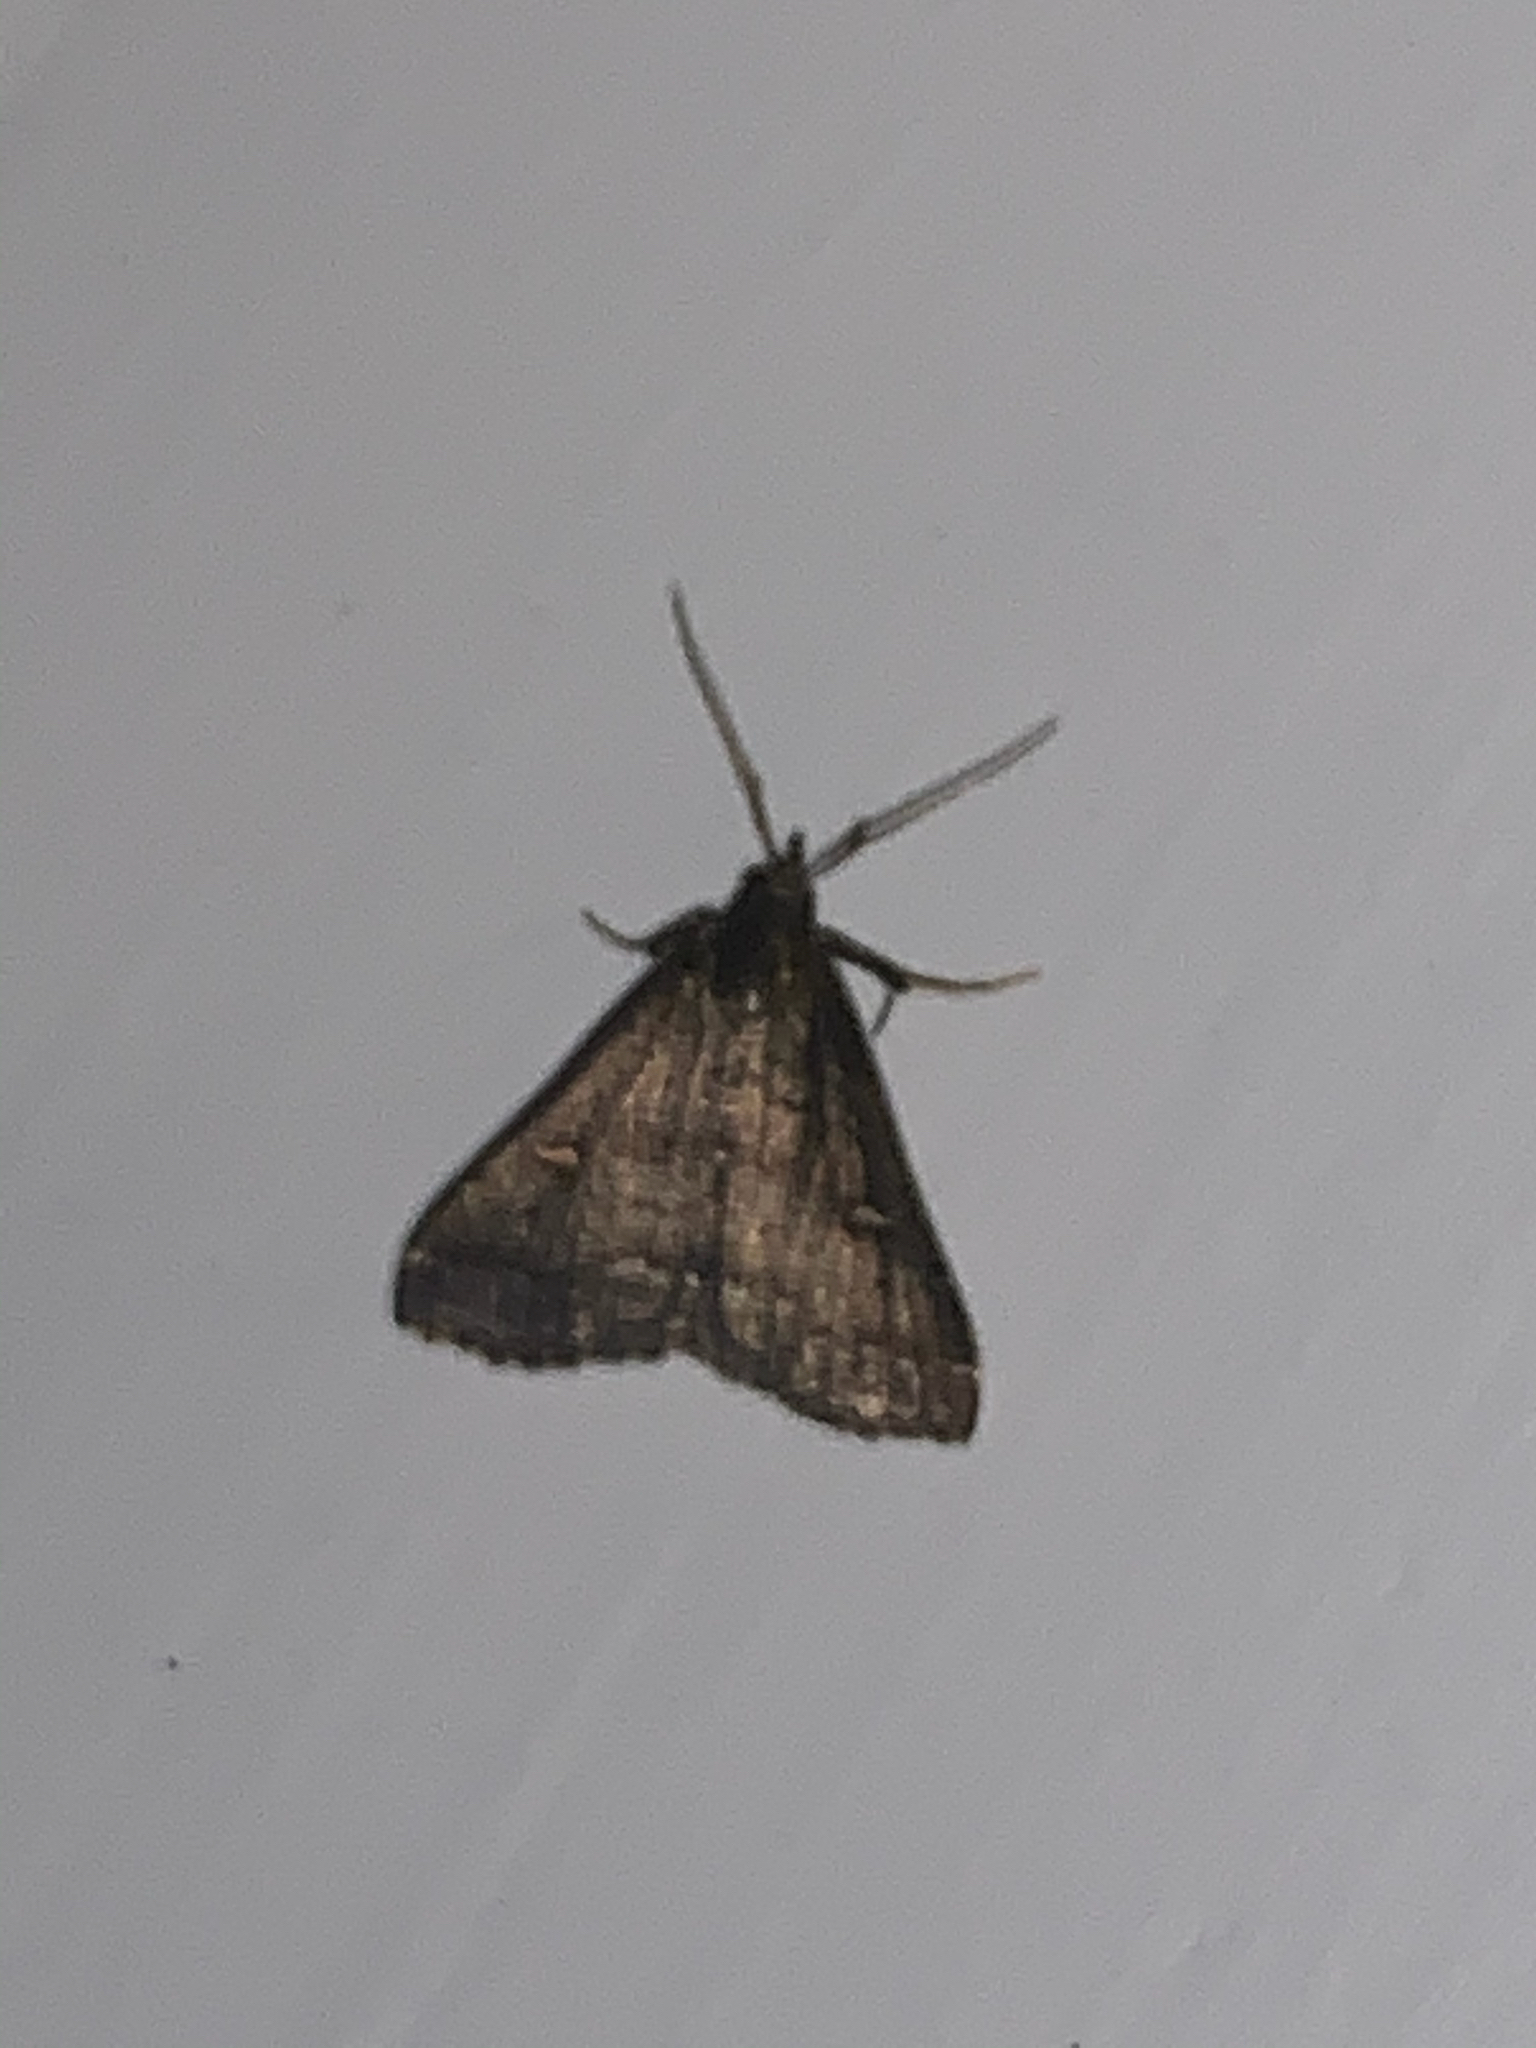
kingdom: Animalia
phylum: Arthropoda
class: Insecta
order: Lepidoptera
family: Erebidae
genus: Tetanolita
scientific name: Tetanolita mynesalis
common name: Smoky tetanolita moth
